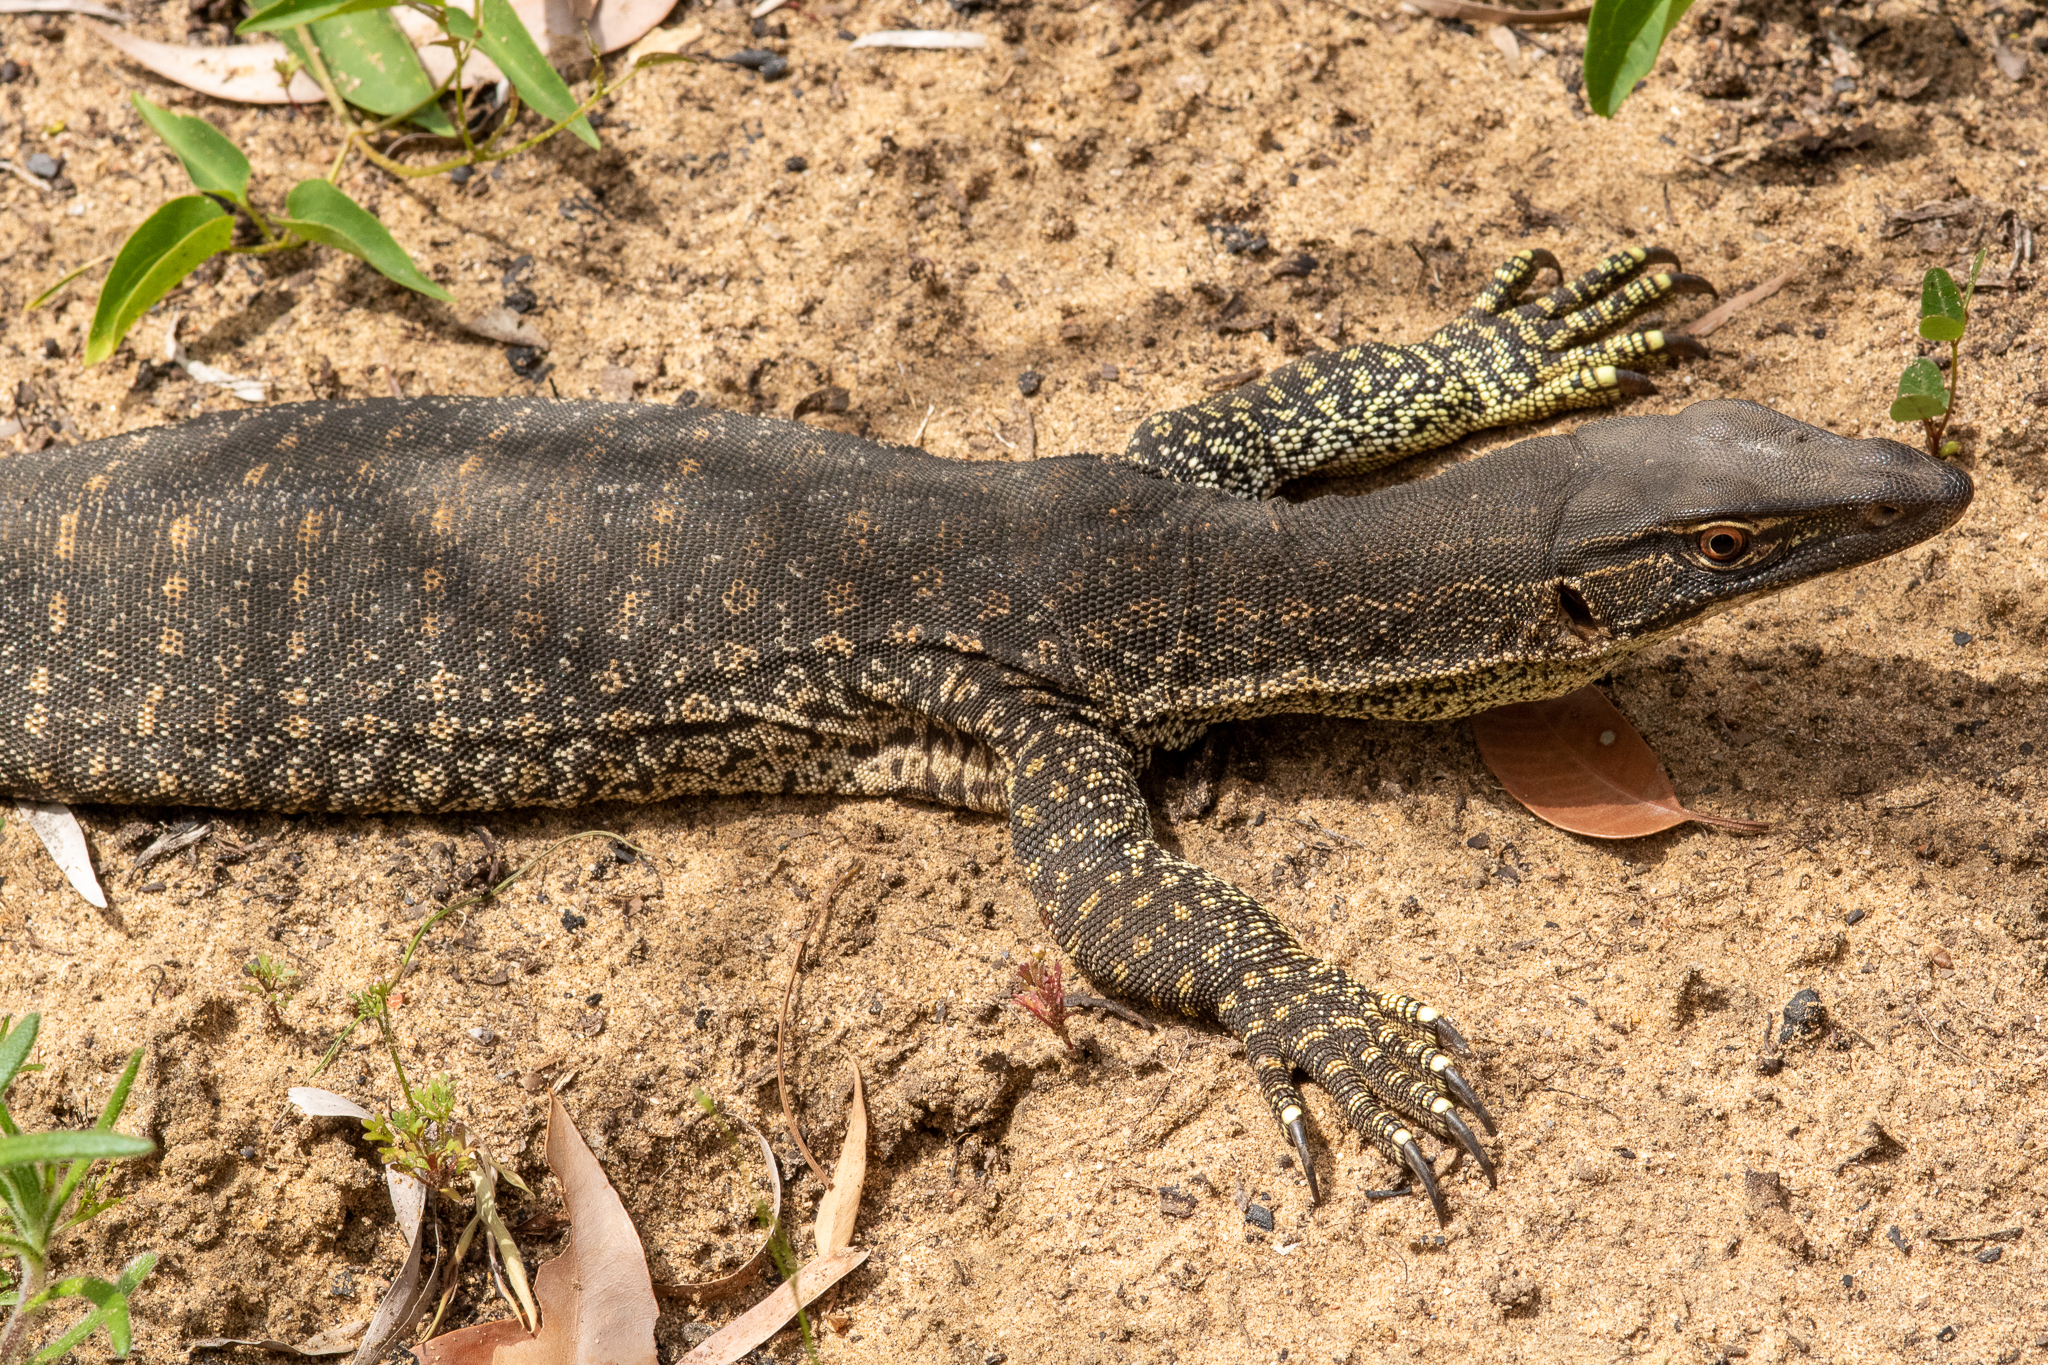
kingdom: Animalia
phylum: Chordata
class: Squamata
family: Varanidae
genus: Varanus
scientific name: Varanus gouldii
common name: Gould's goanna
